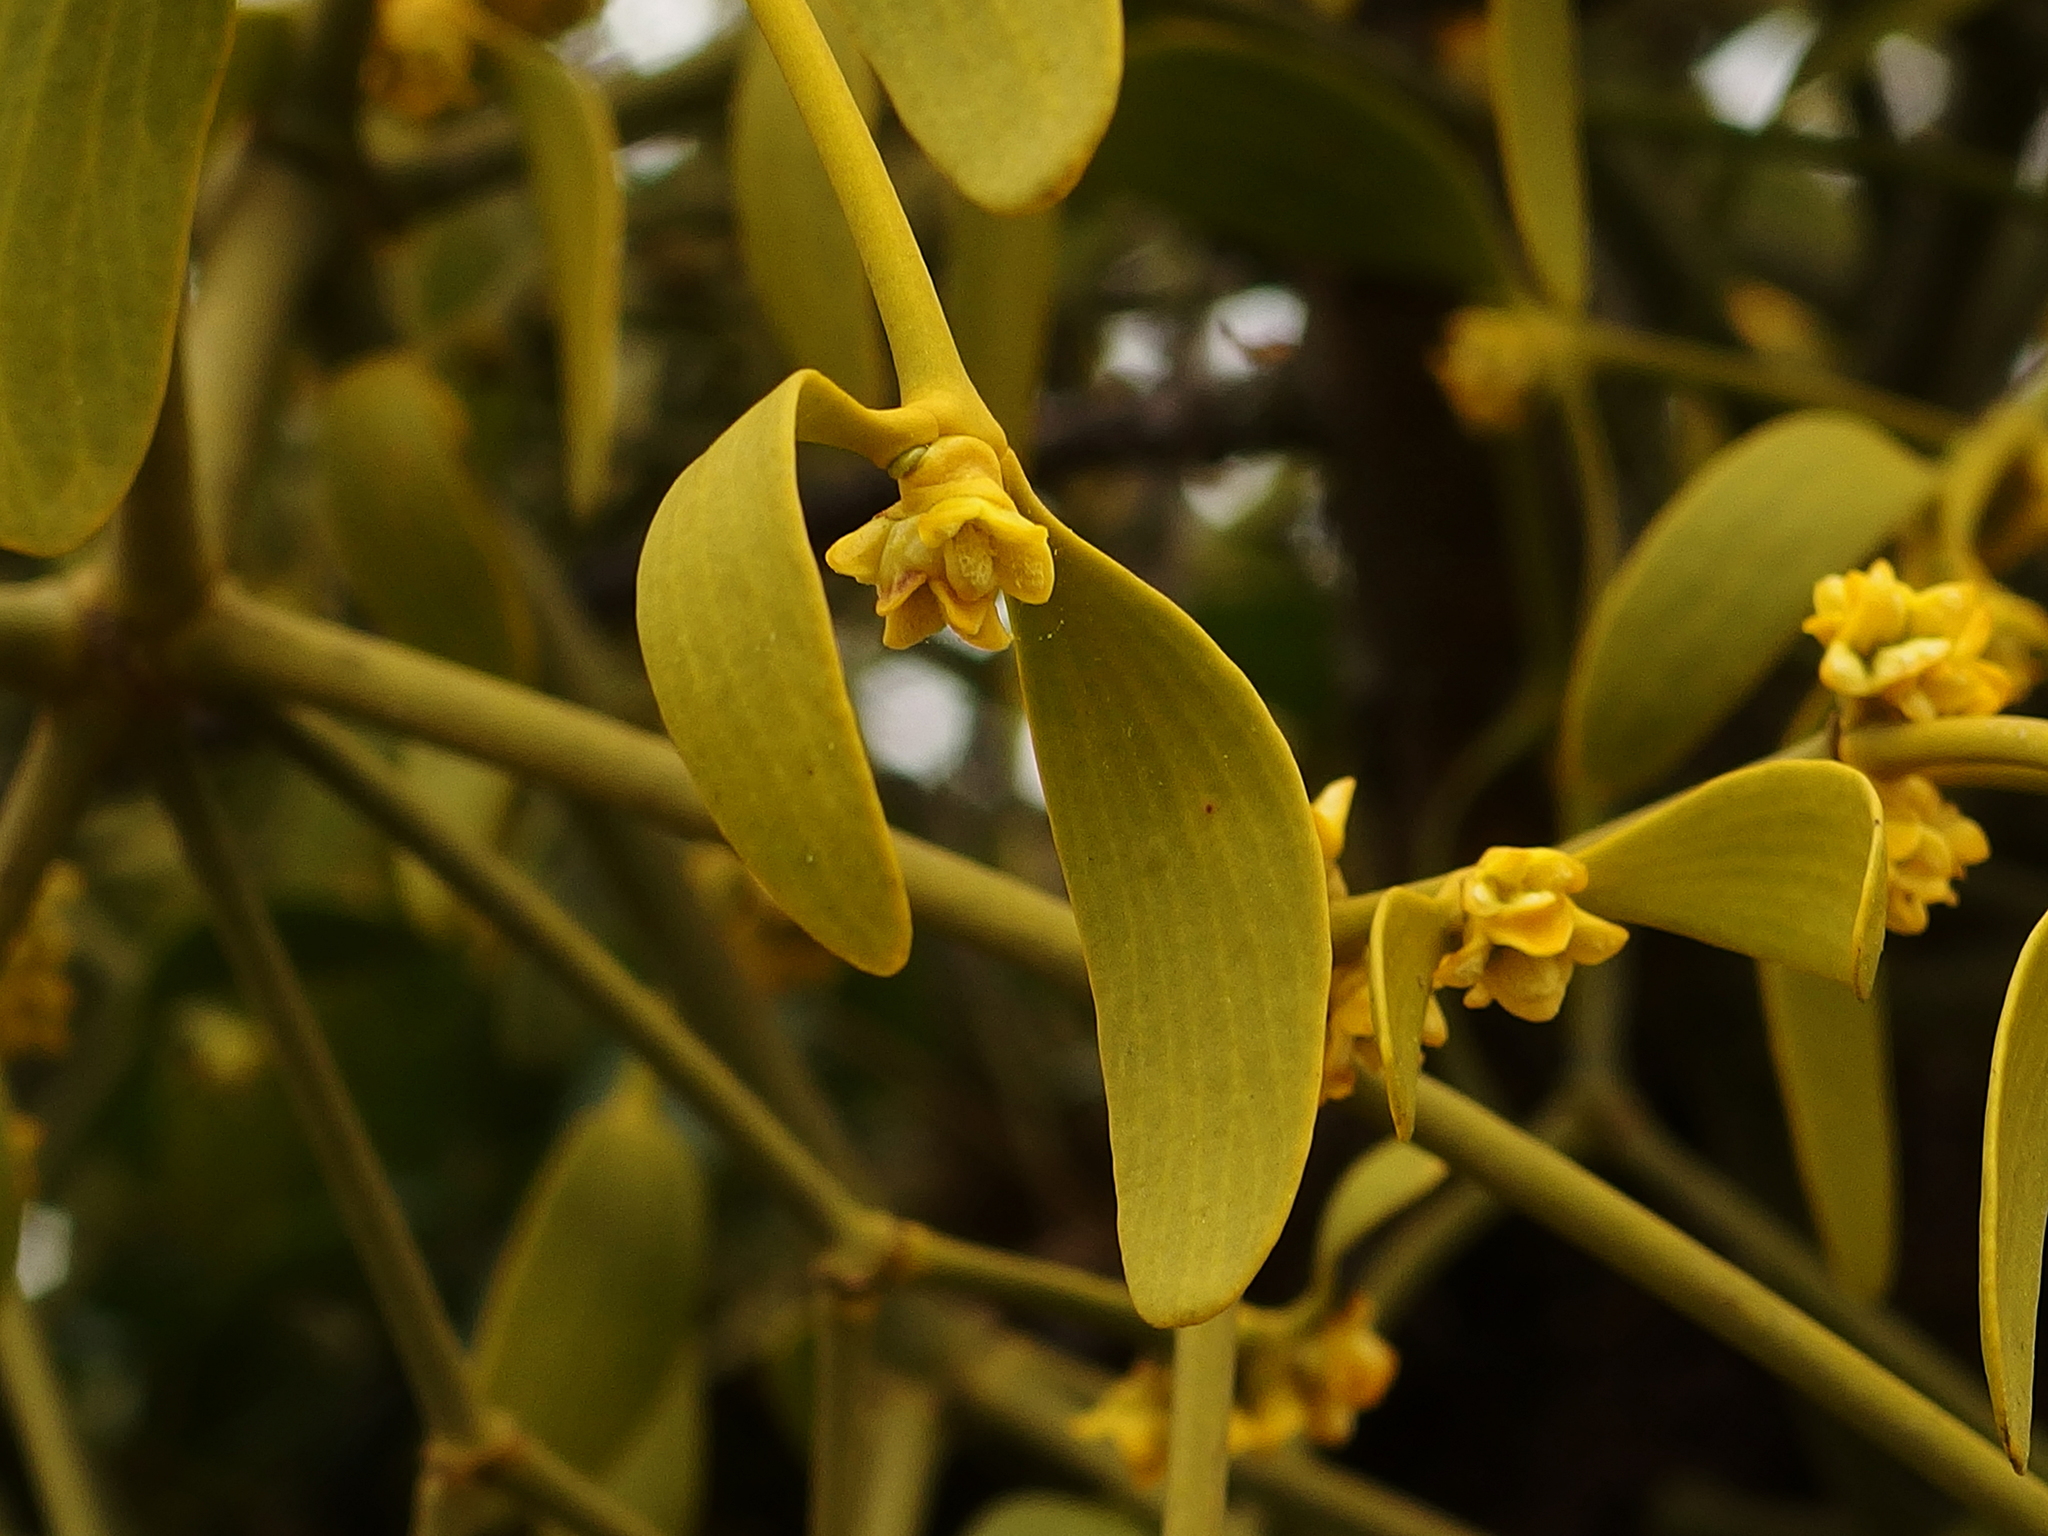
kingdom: Plantae
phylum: Tracheophyta
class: Magnoliopsida
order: Santalales
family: Viscaceae
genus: Viscum
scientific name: Viscum album
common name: Mistletoe
